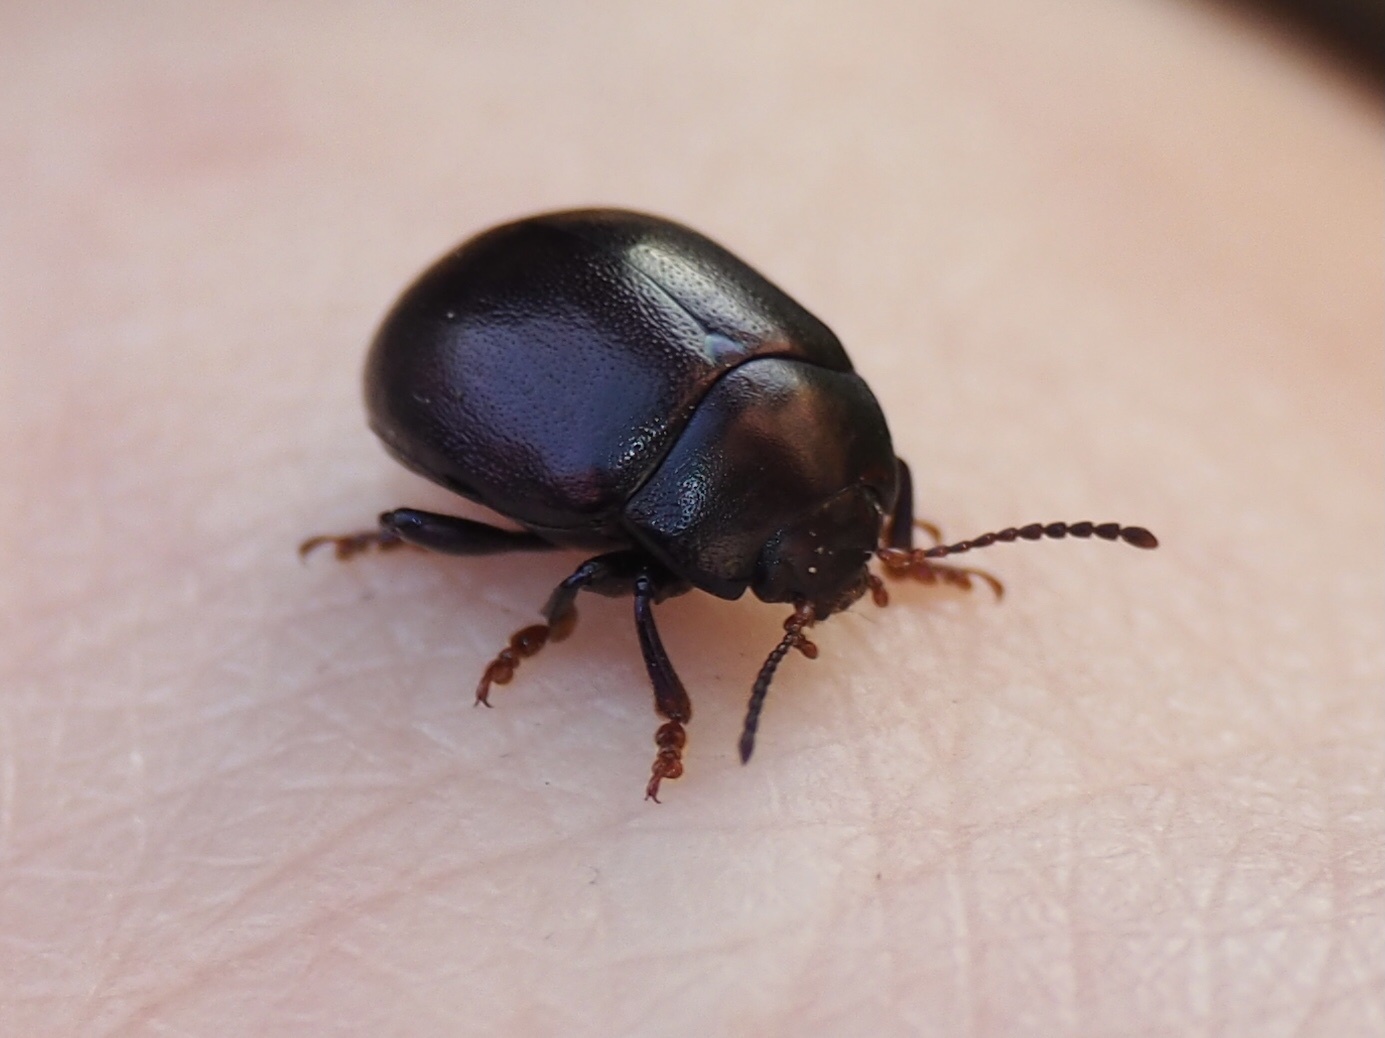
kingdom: Animalia
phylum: Arthropoda
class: Insecta
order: Coleoptera
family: Chrysomelidae
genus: Chrysolina
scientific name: Chrysolina sturmi
